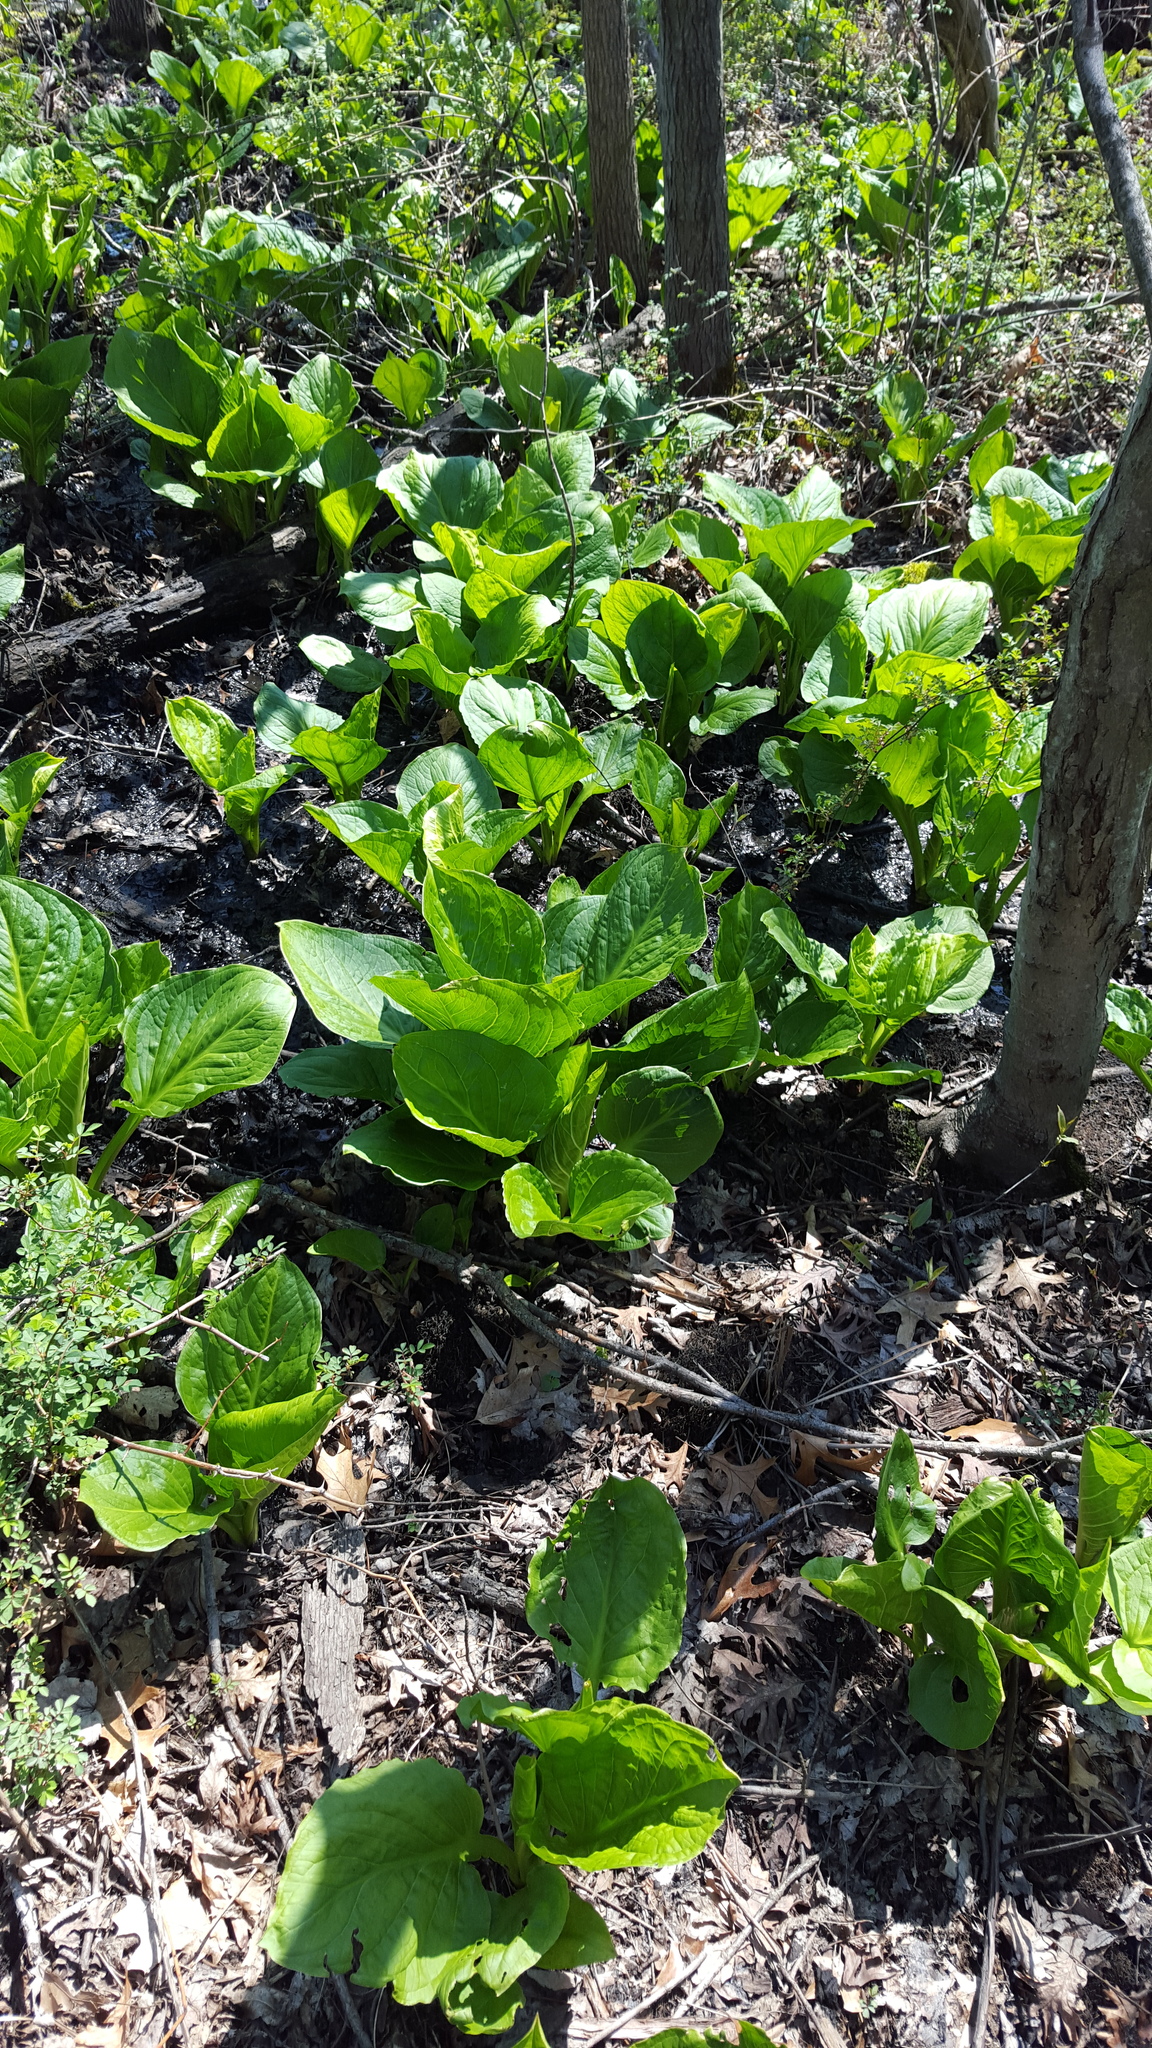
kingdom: Plantae
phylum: Tracheophyta
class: Liliopsida
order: Alismatales
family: Araceae
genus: Symplocarpus
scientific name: Symplocarpus foetidus
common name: Eastern skunk cabbage
